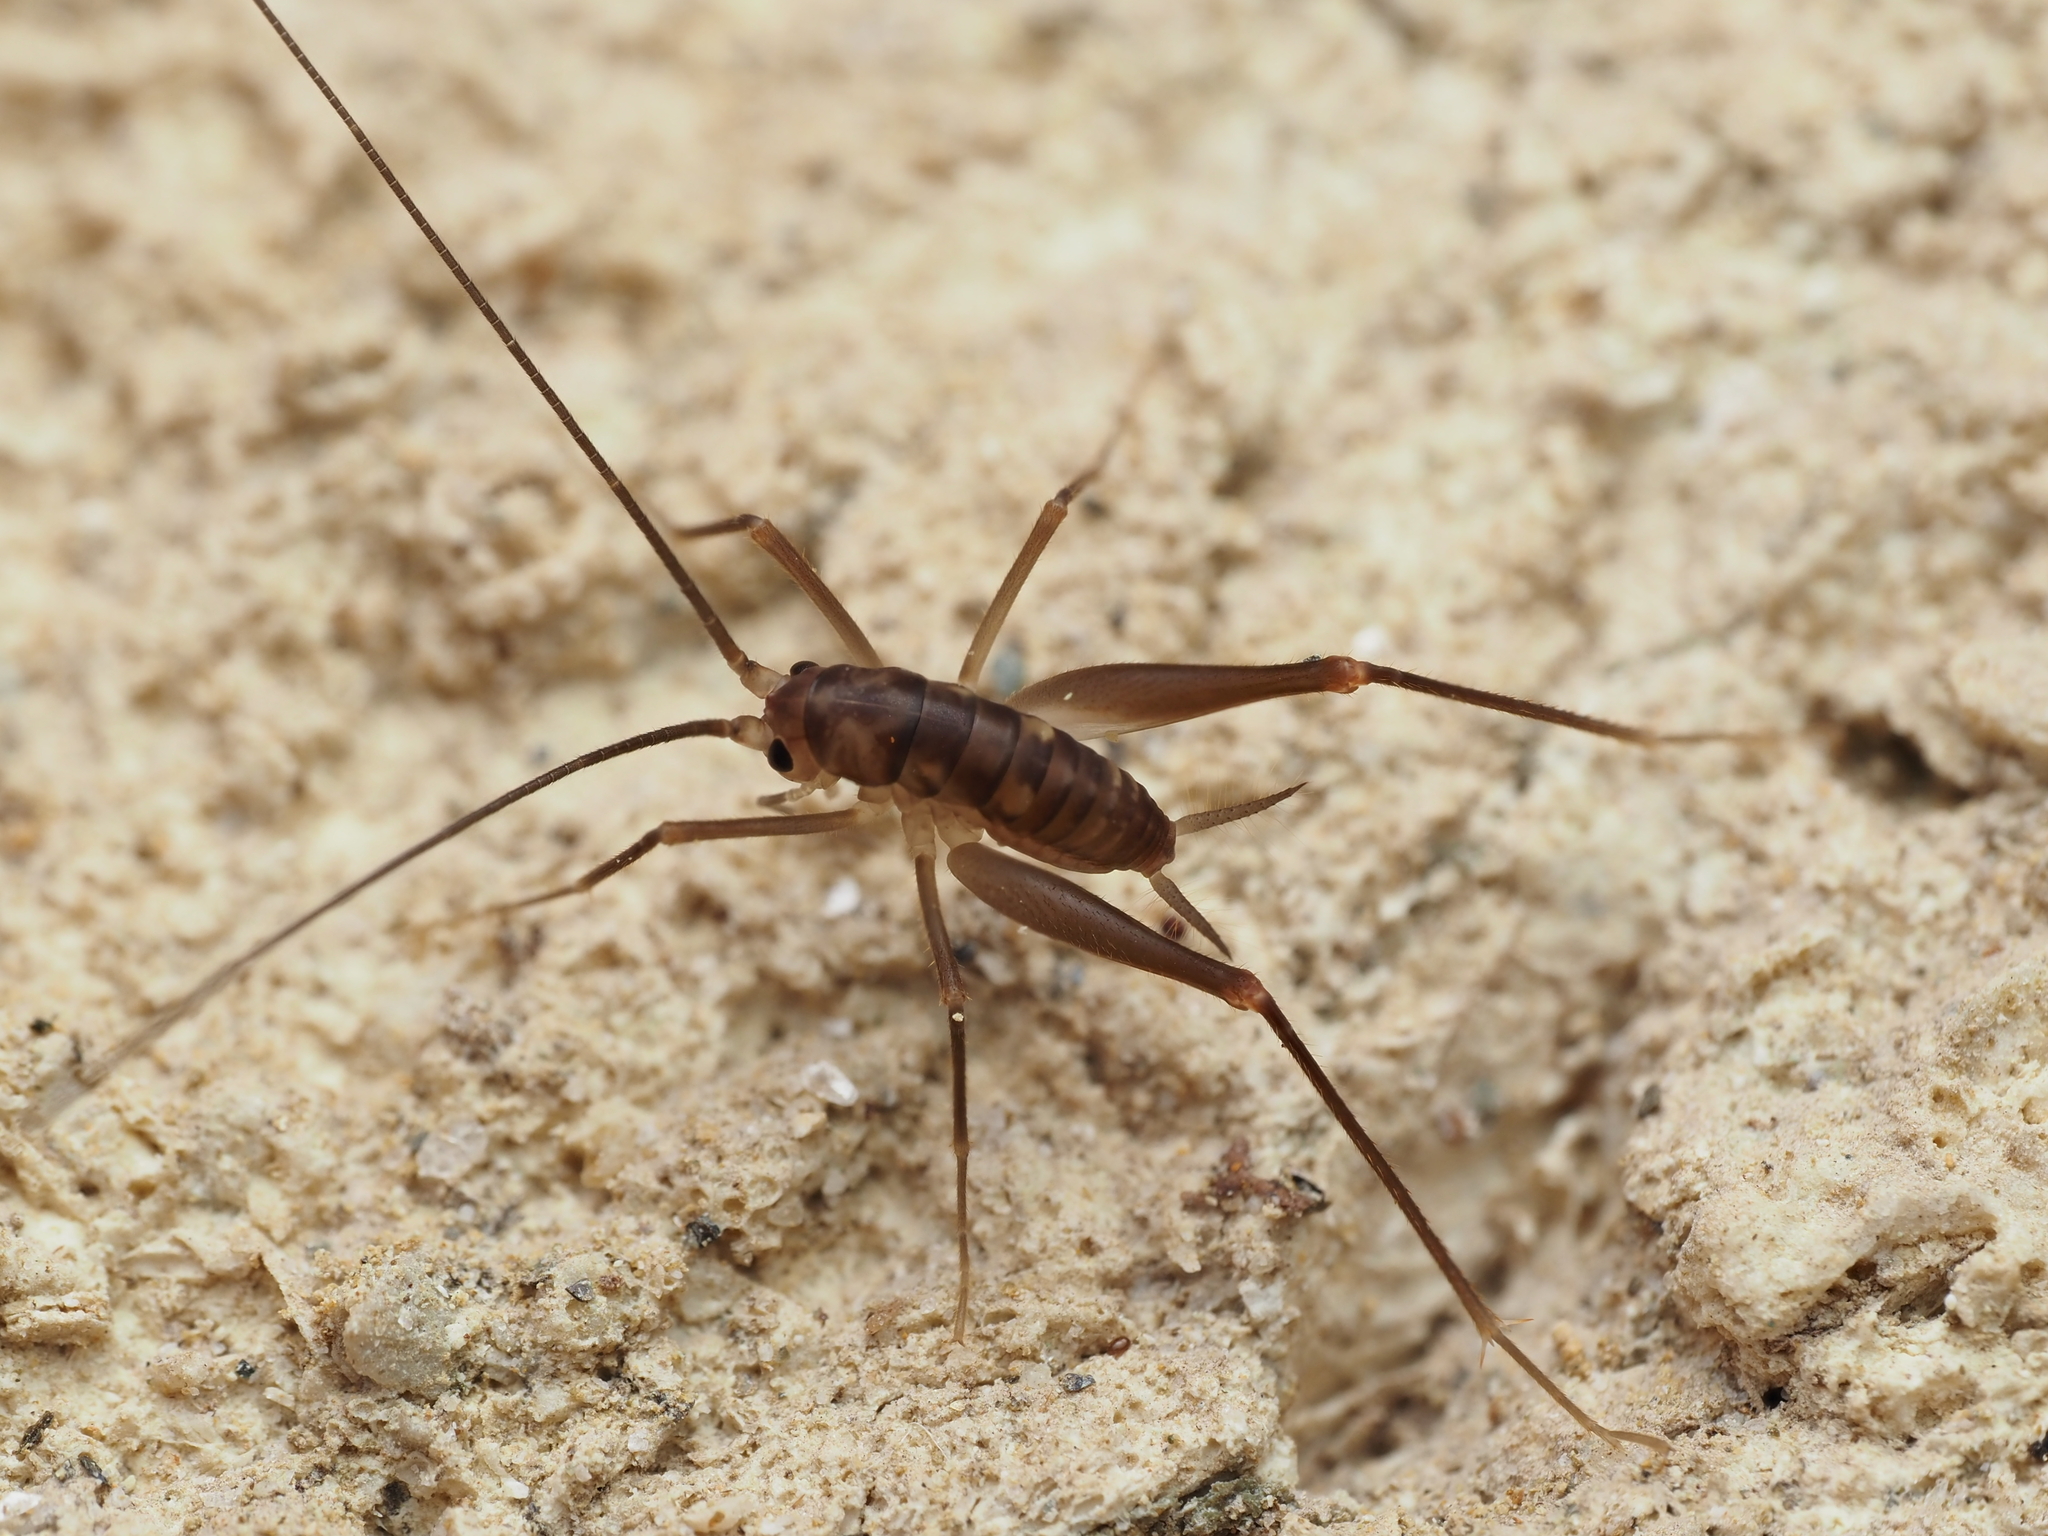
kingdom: Animalia
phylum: Arthropoda
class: Insecta
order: Orthoptera
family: Rhaphidophoridae
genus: Macropathus
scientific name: Macropathus filifer
